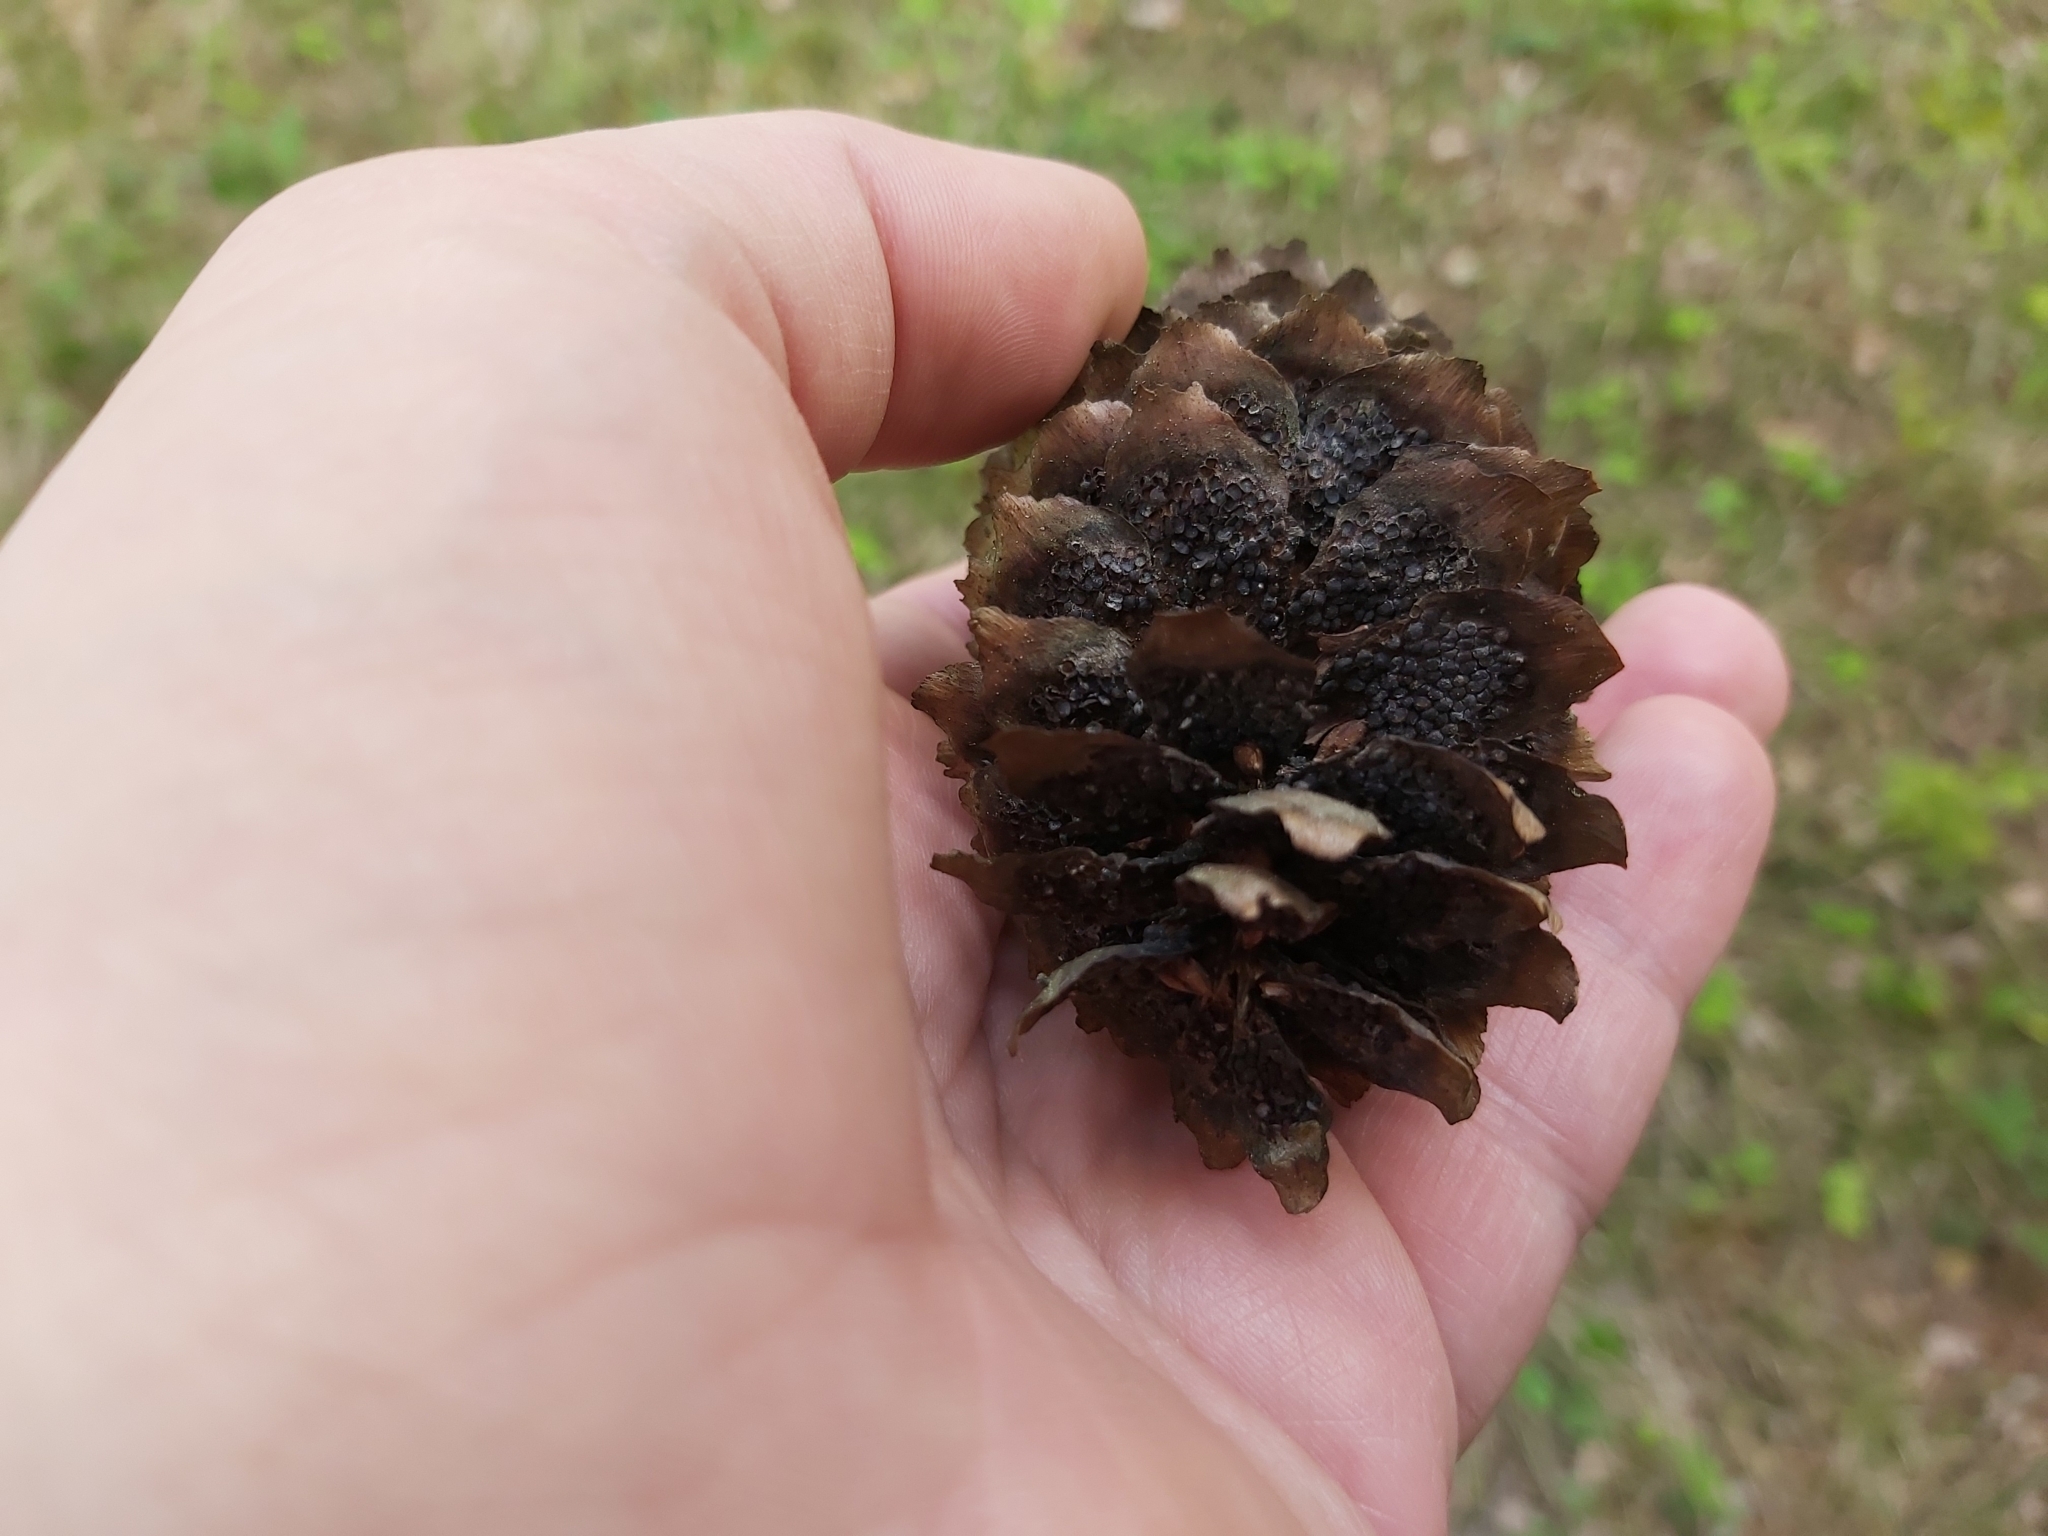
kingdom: Fungi
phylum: Basidiomycota
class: Pucciniomycetes
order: Pucciniales
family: Pucciniastraceae
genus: Thekopsora
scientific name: Thekopsora areolata
